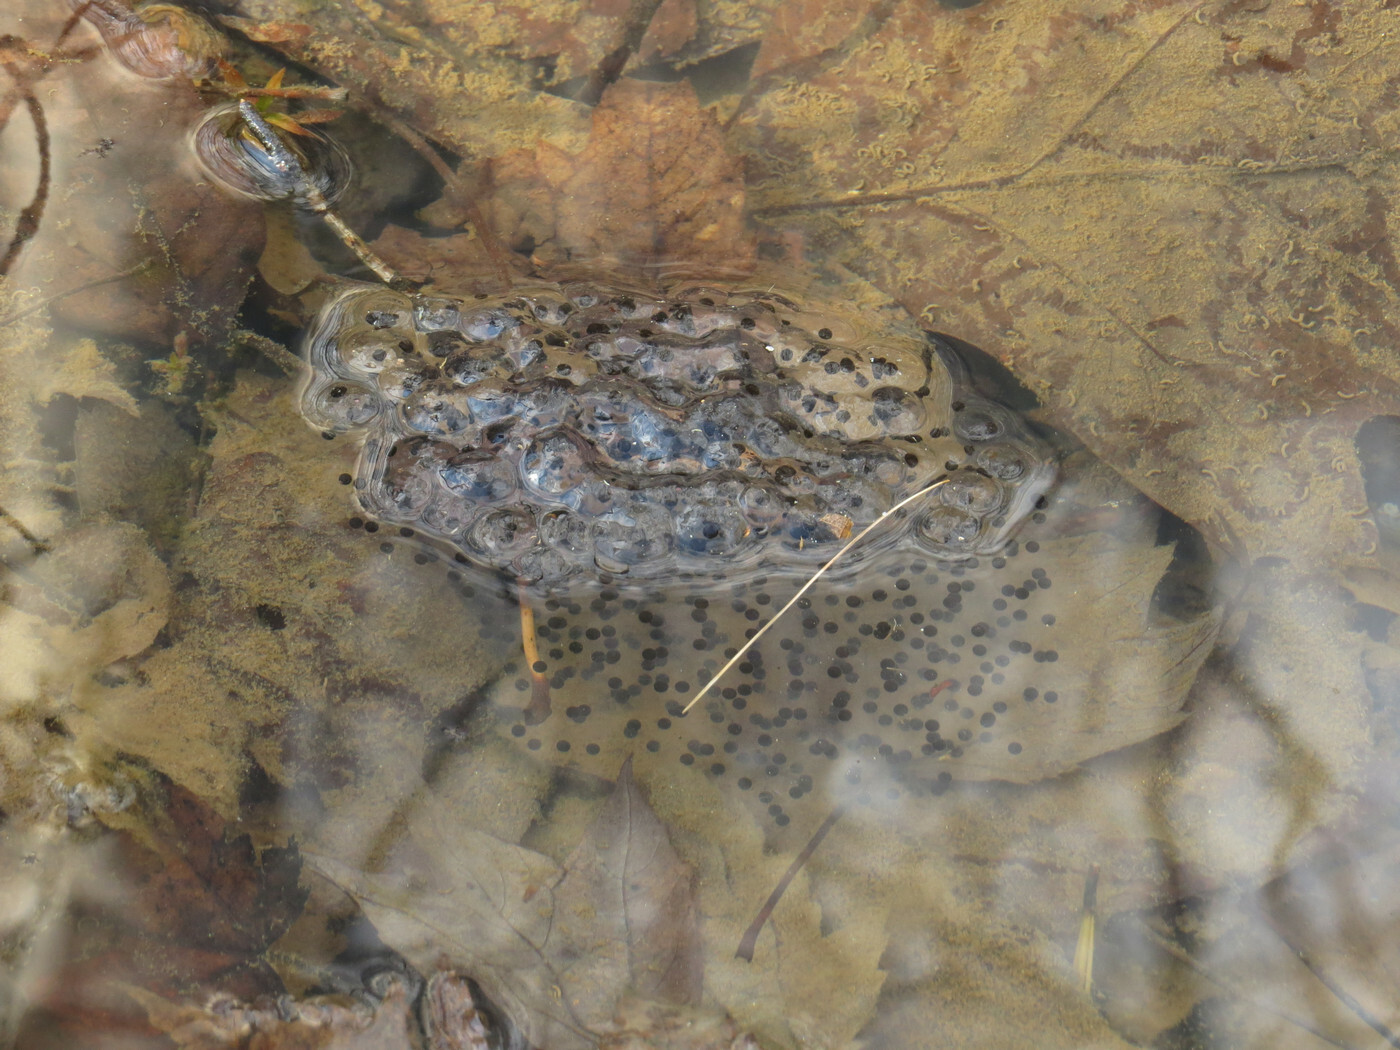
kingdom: Animalia
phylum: Chordata
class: Amphibia
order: Anura
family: Ranidae
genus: Lithobates
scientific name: Lithobates sylvaticus
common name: Wood frog
